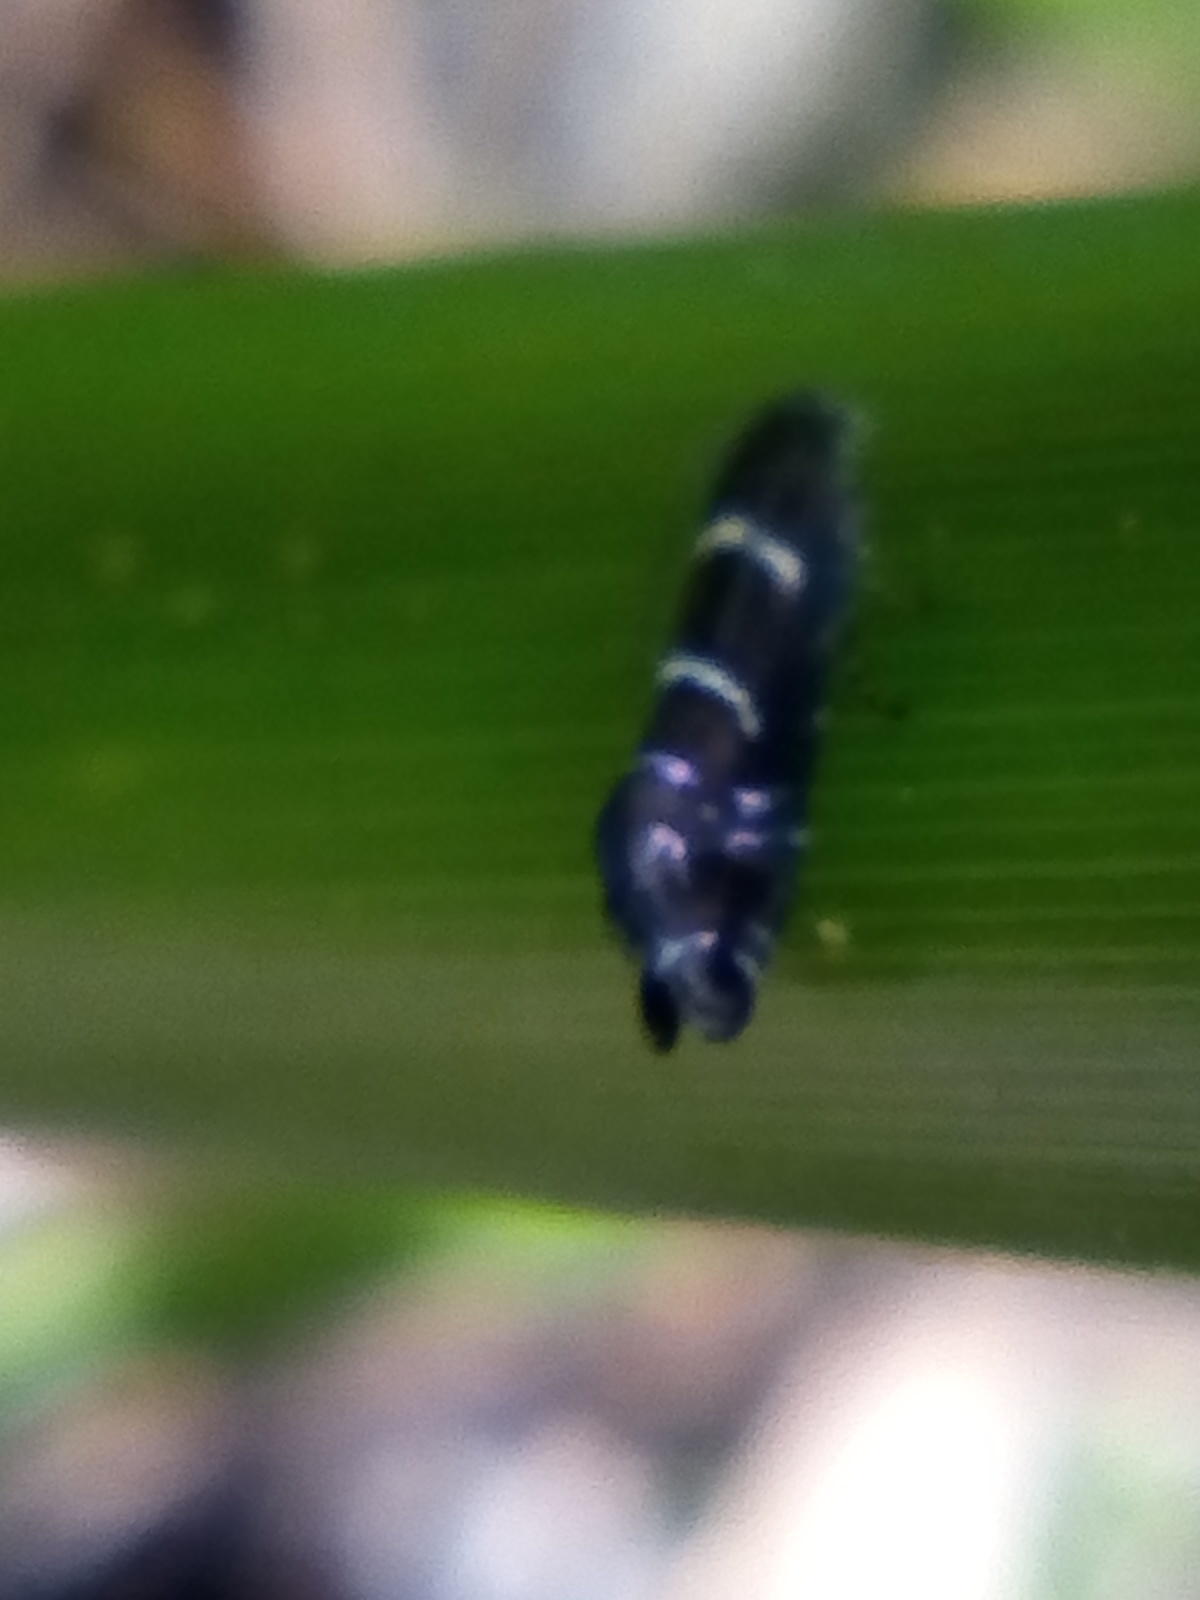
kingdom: Animalia
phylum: Arthropoda
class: Insecta
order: Lepidoptera
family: Glyphipterigidae
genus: Glyphipterix
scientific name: Glyphipterix dichorda
